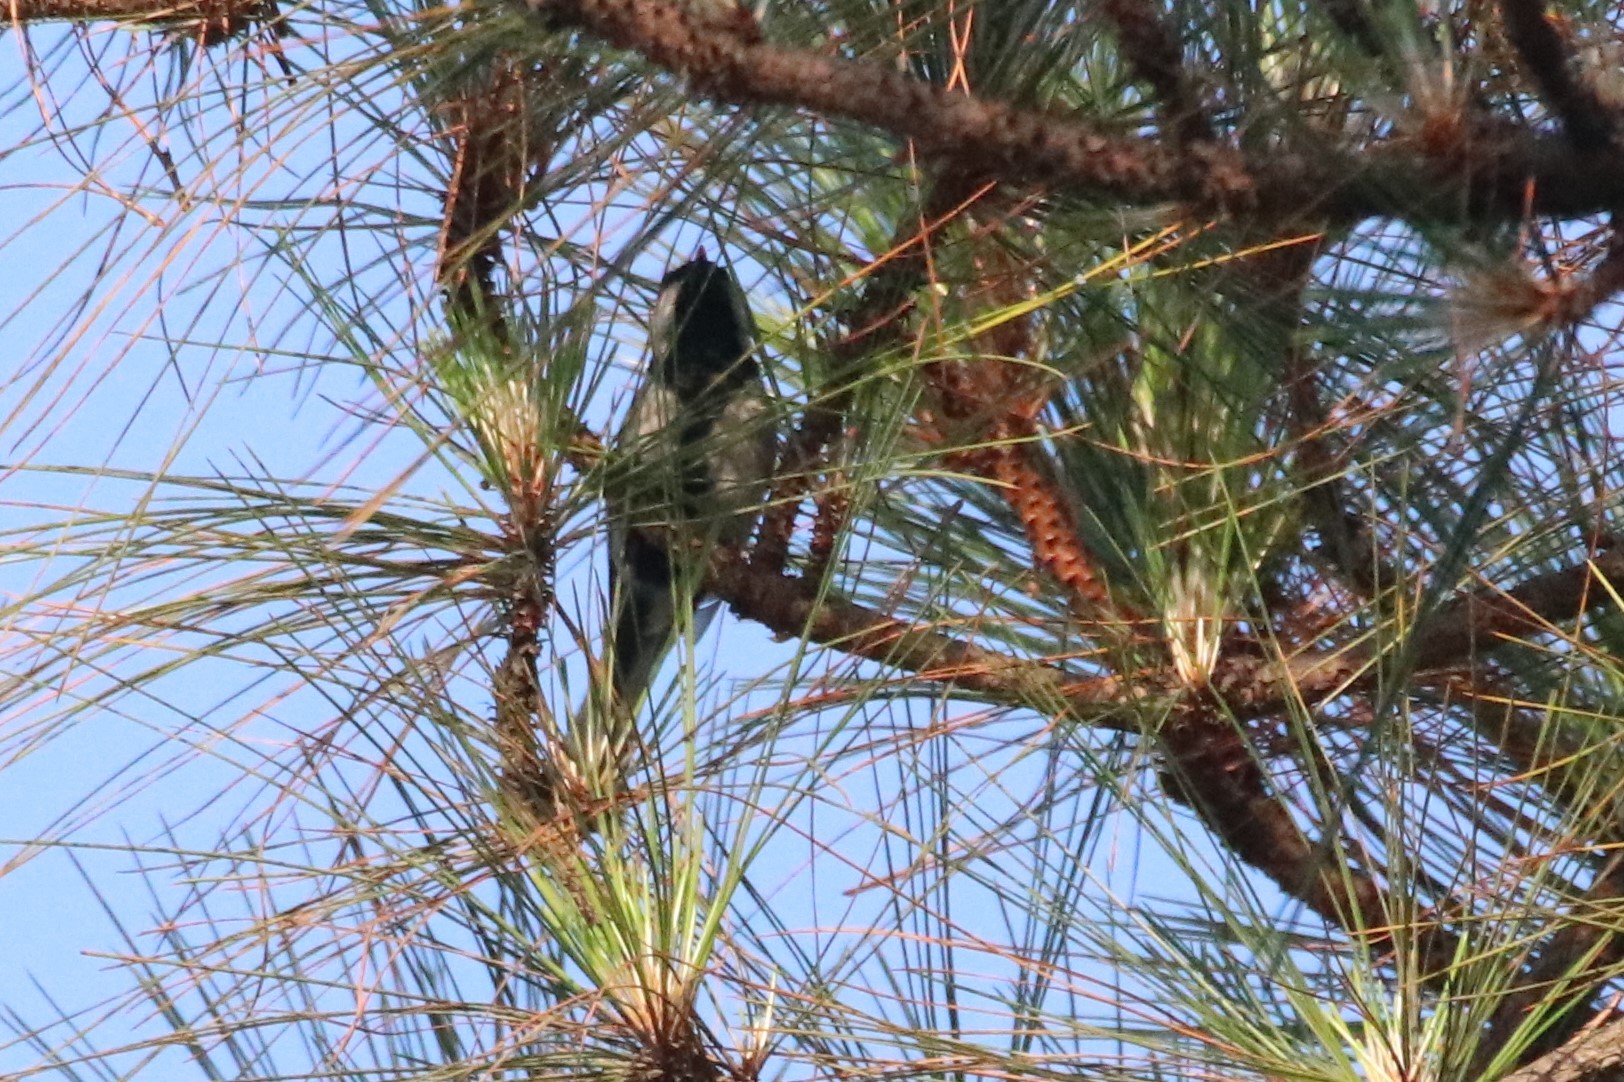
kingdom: Animalia
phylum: Chordata
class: Aves
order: Passeriformes
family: Paridae
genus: Parus
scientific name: Parus minor
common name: Japanese tit
